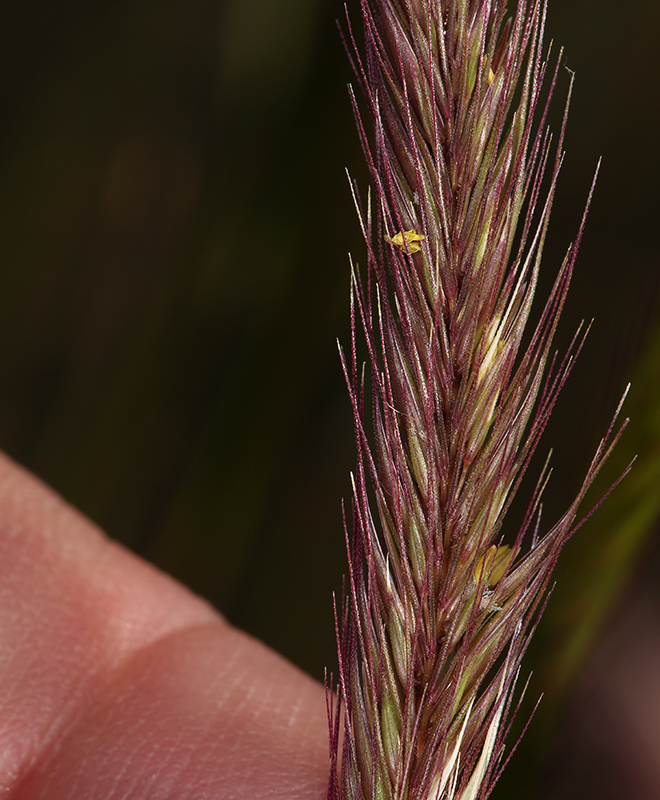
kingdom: Plantae
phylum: Tracheophyta
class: Liliopsida
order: Poales
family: Poaceae
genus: Hordeum
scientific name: Hordeum brachyantherum
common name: Meadow barley
